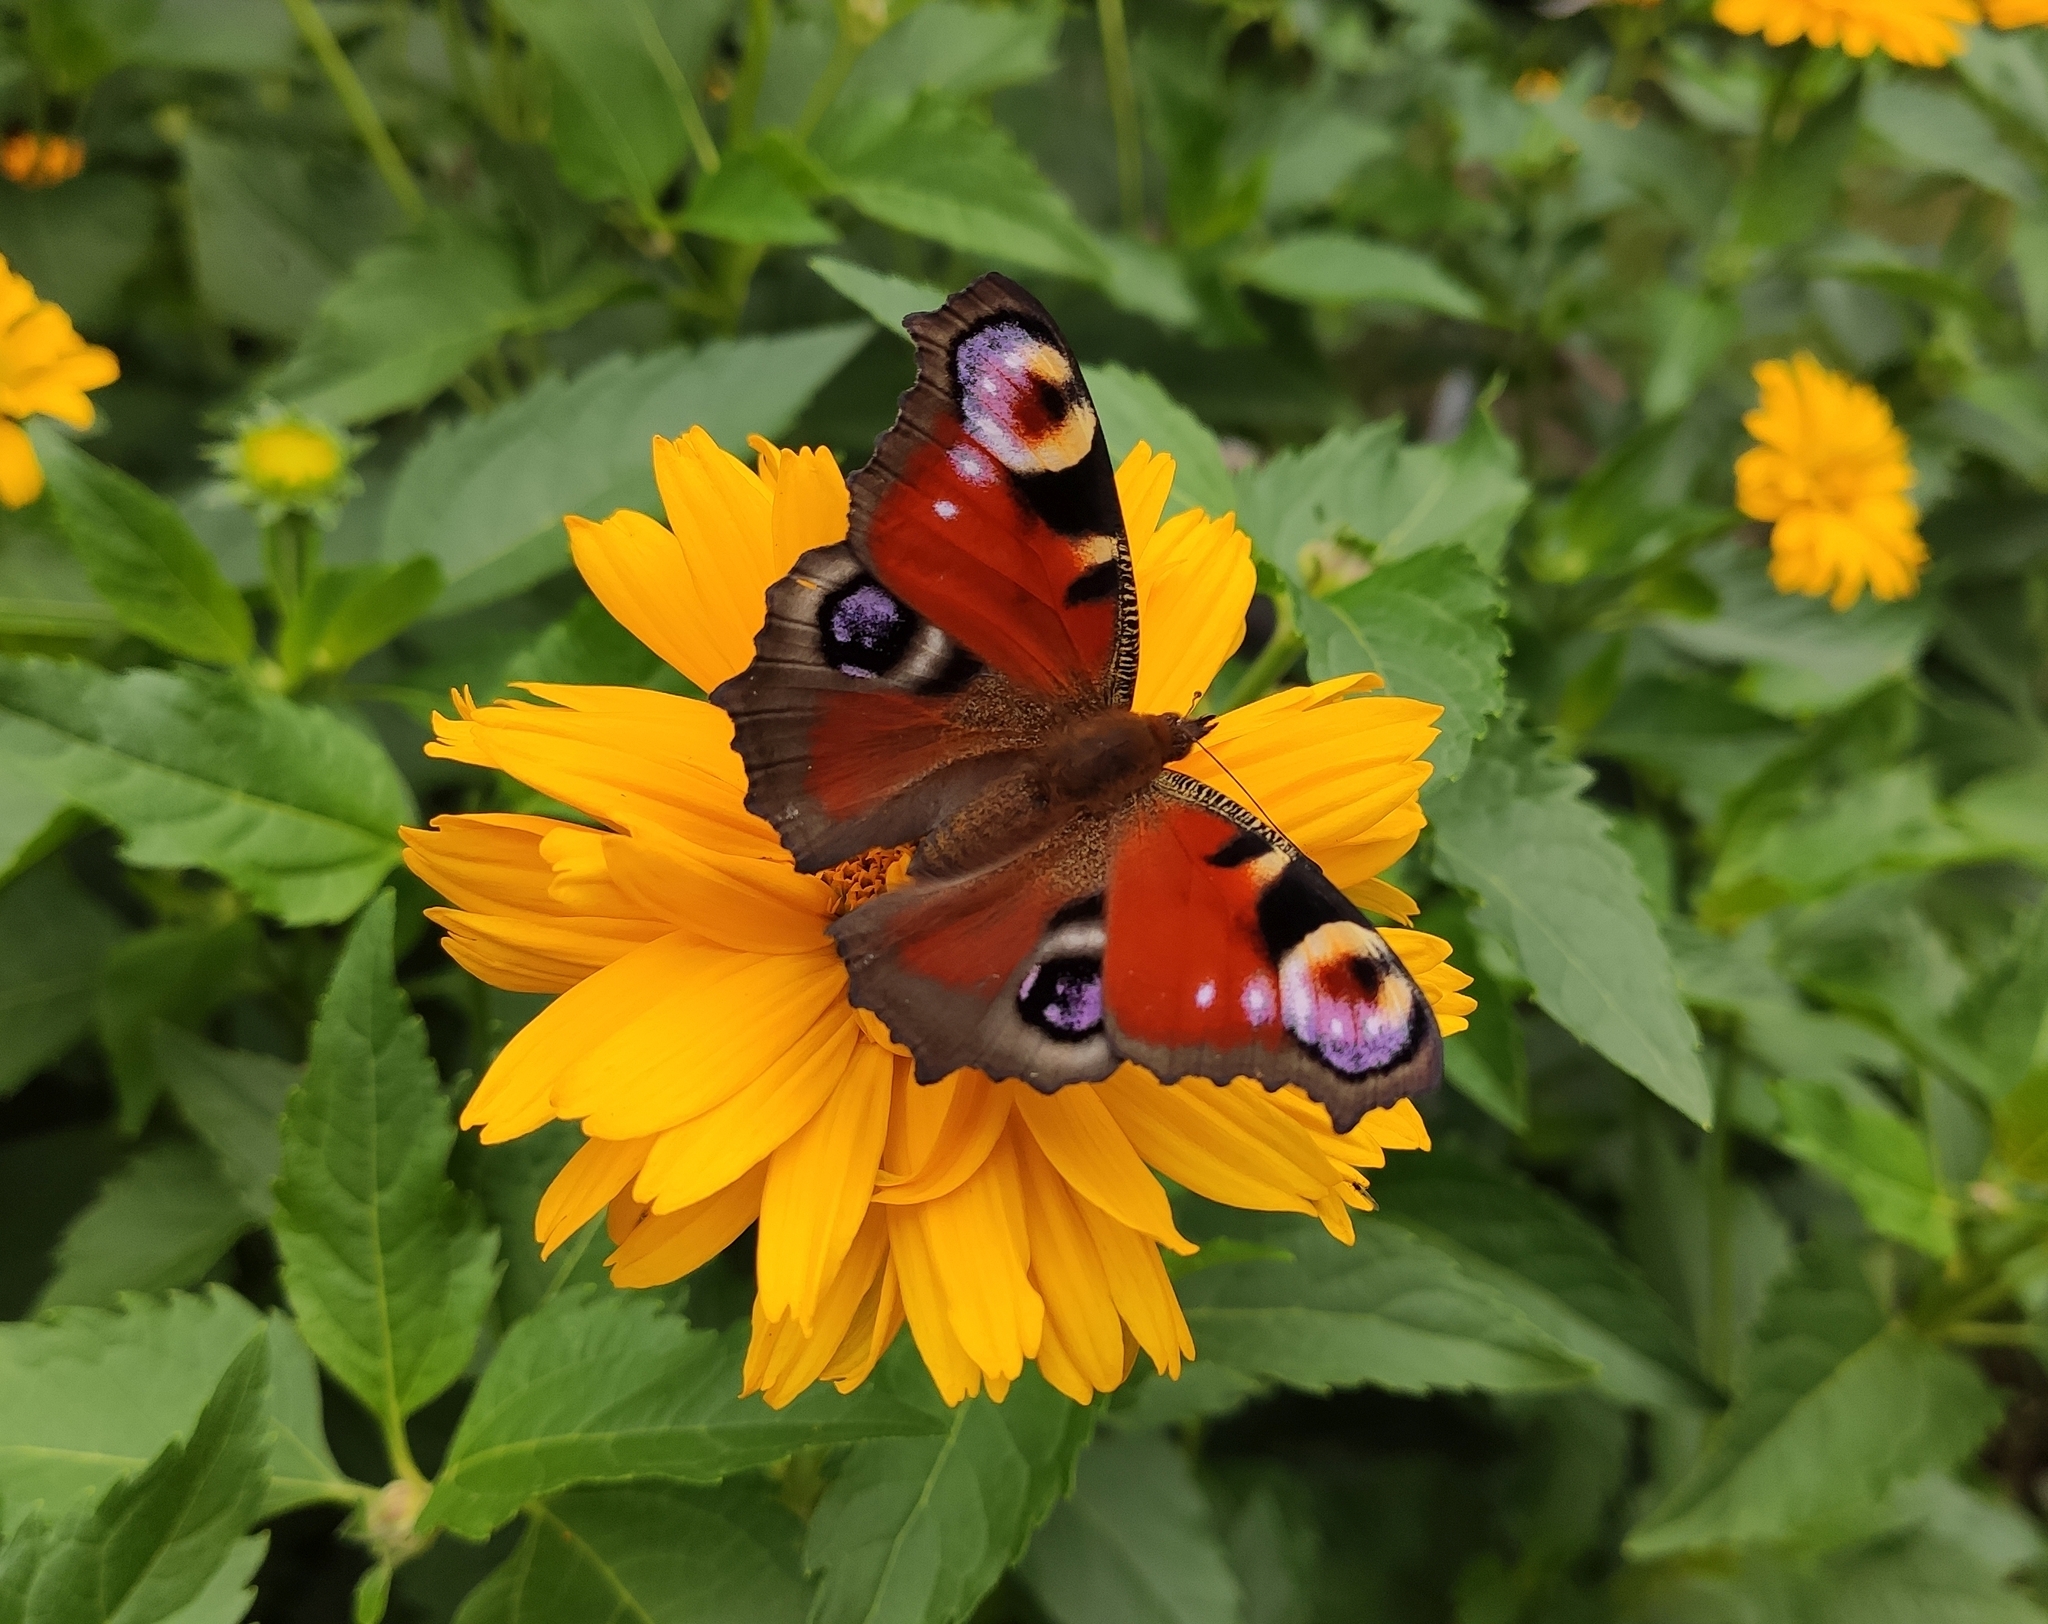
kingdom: Animalia
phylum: Arthropoda
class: Insecta
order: Lepidoptera
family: Nymphalidae
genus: Aglais
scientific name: Aglais io
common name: Peacock
